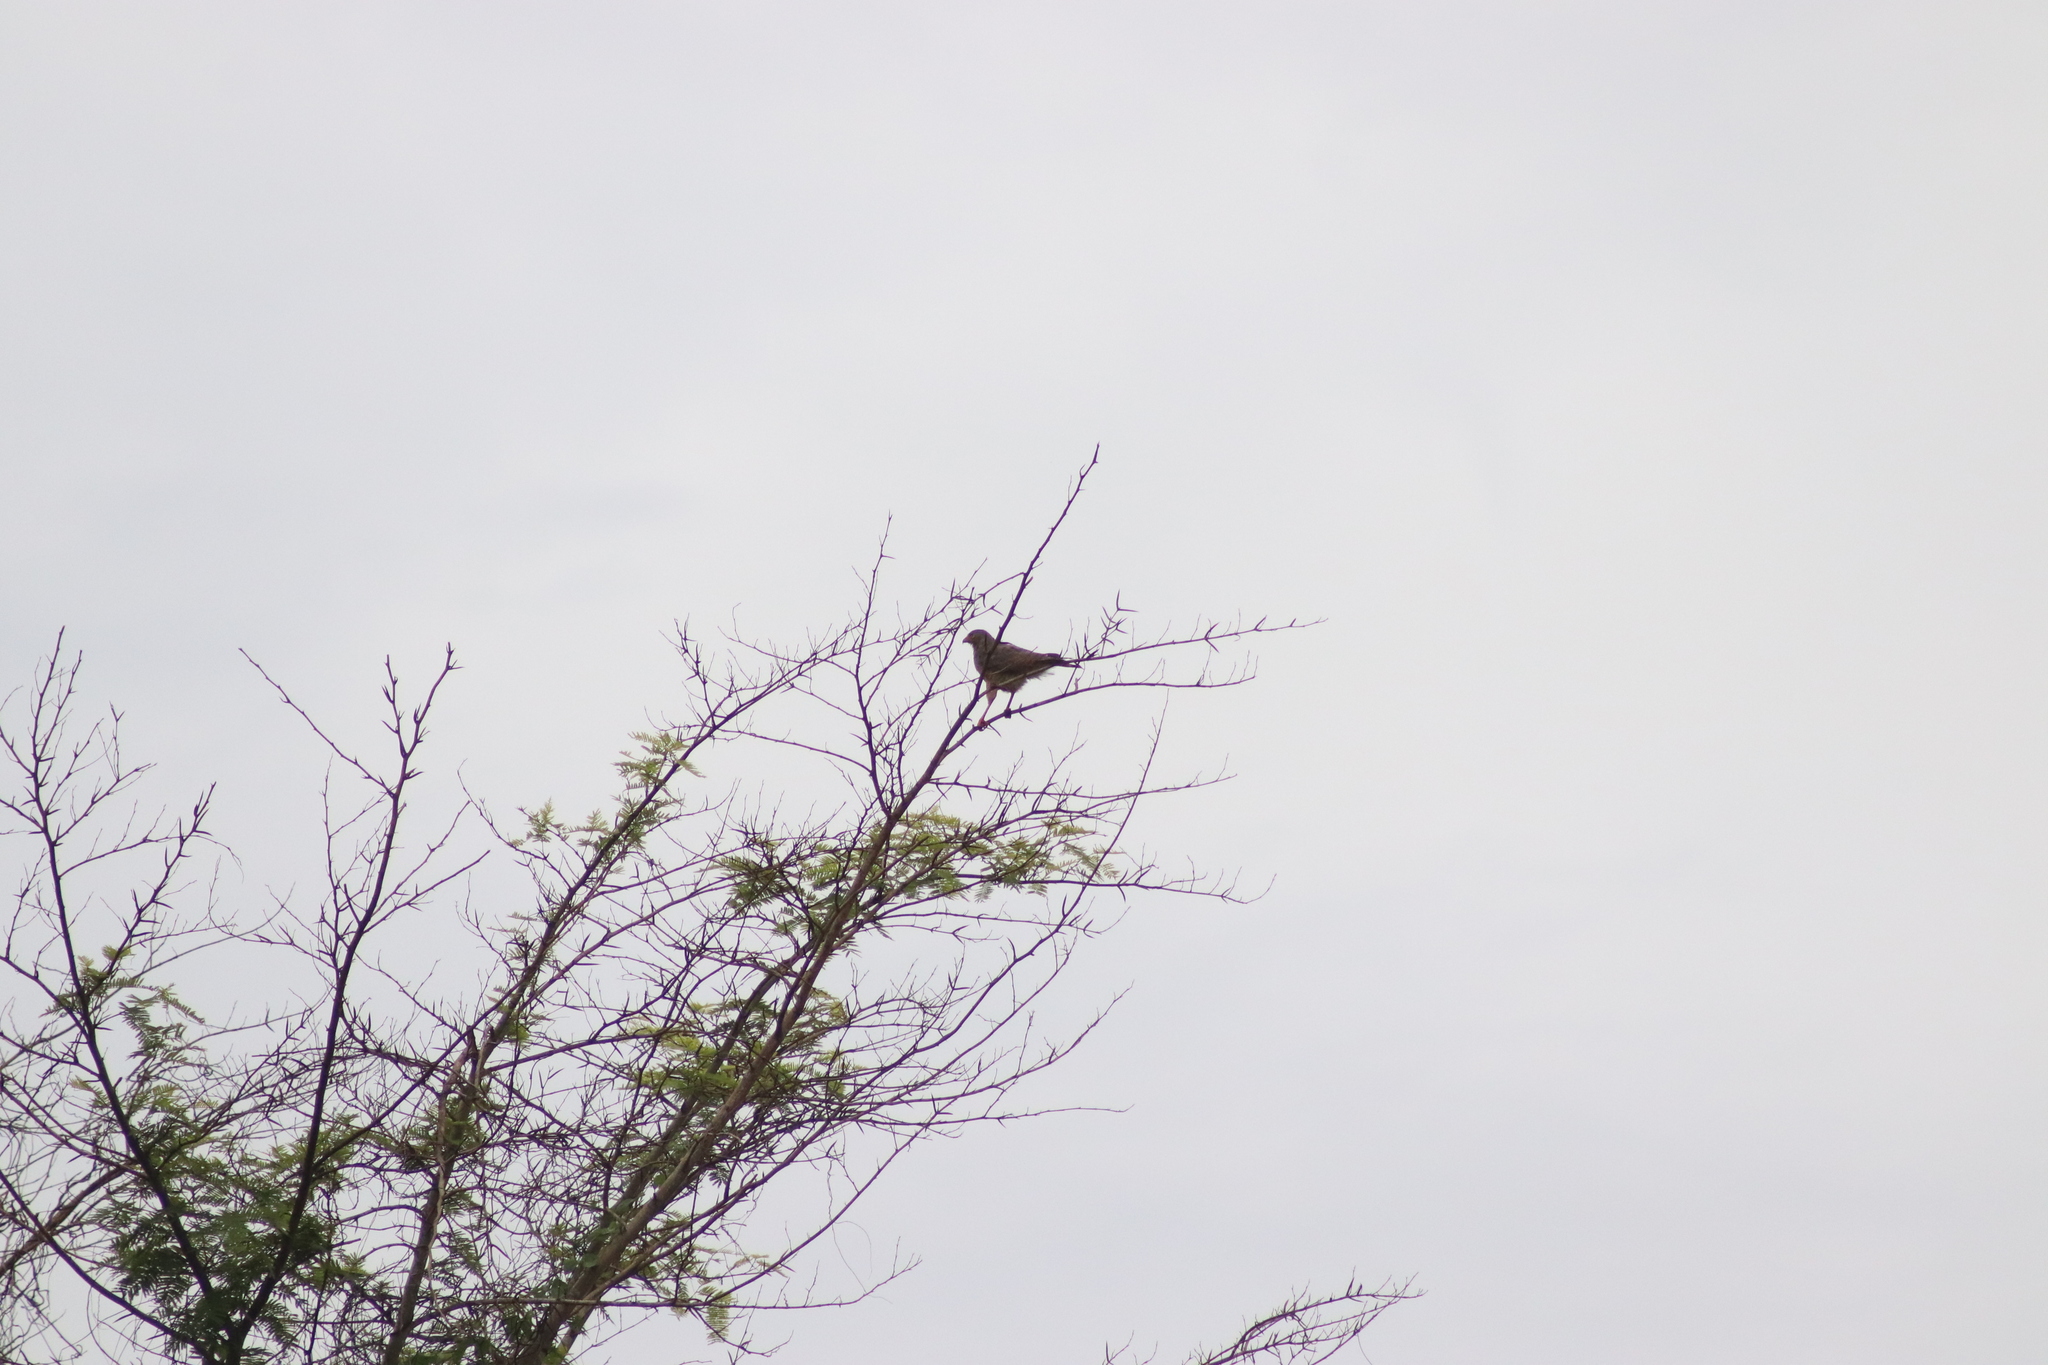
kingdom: Animalia
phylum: Chordata
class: Aves
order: Accipitriformes
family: Accipitridae
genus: Rupornis
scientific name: Rupornis magnirostris
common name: Roadside hawk
